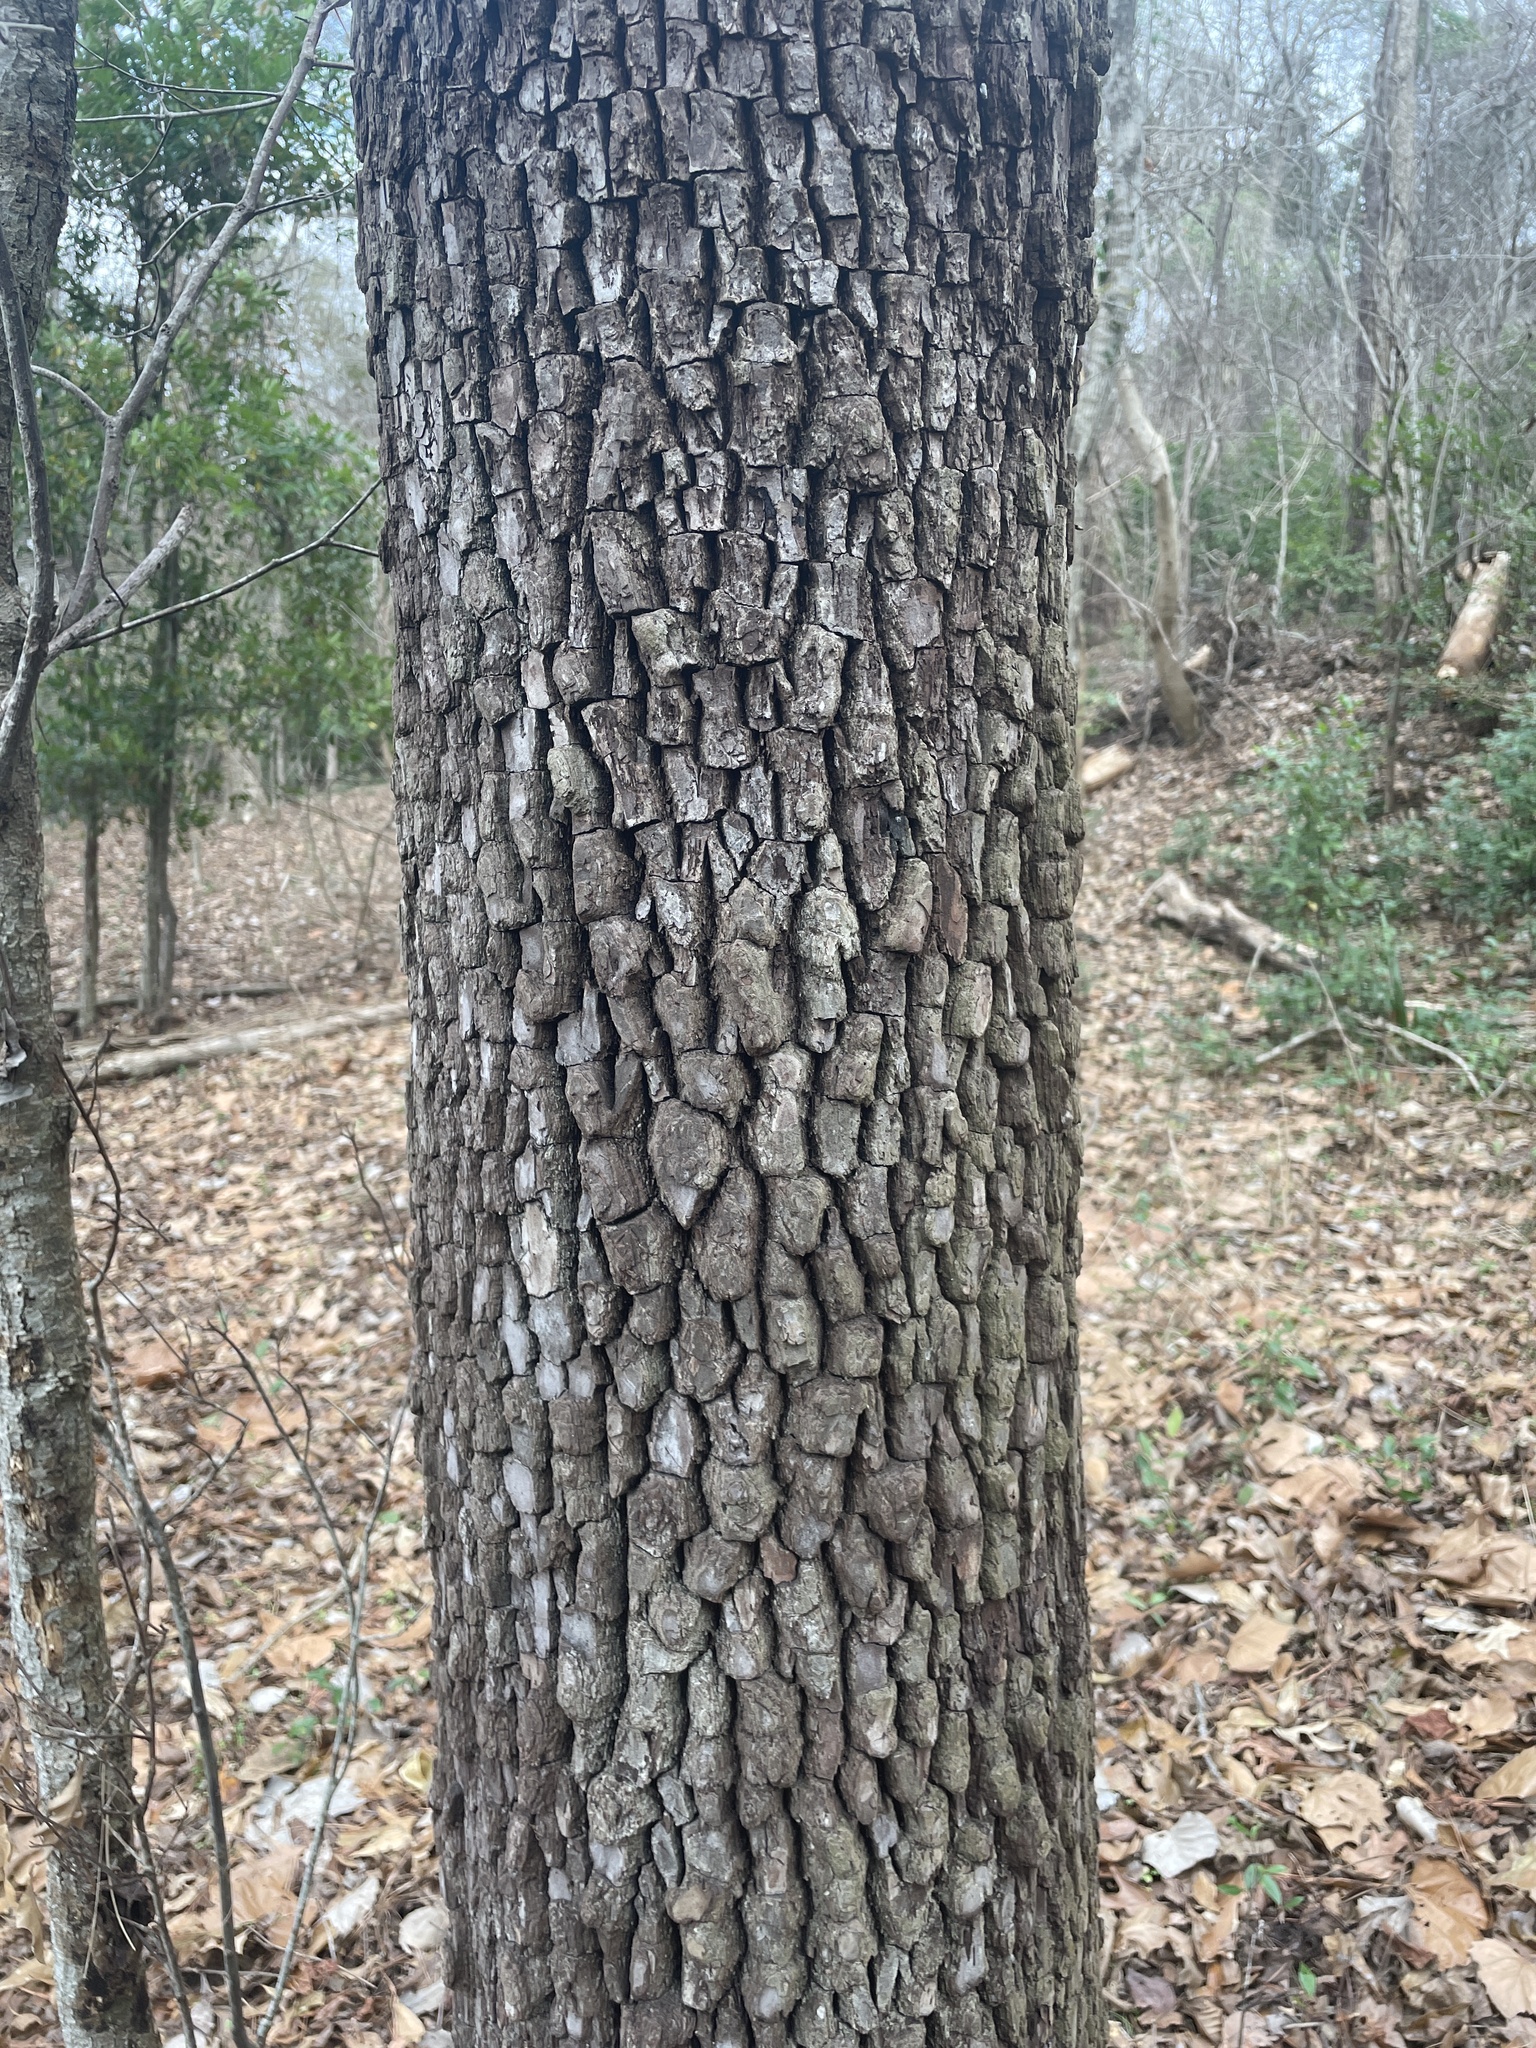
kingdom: Plantae
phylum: Tracheophyta
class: Magnoliopsida
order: Ericales
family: Ebenaceae
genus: Diospyros
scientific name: Diospyros virginiana
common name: Persimmon
